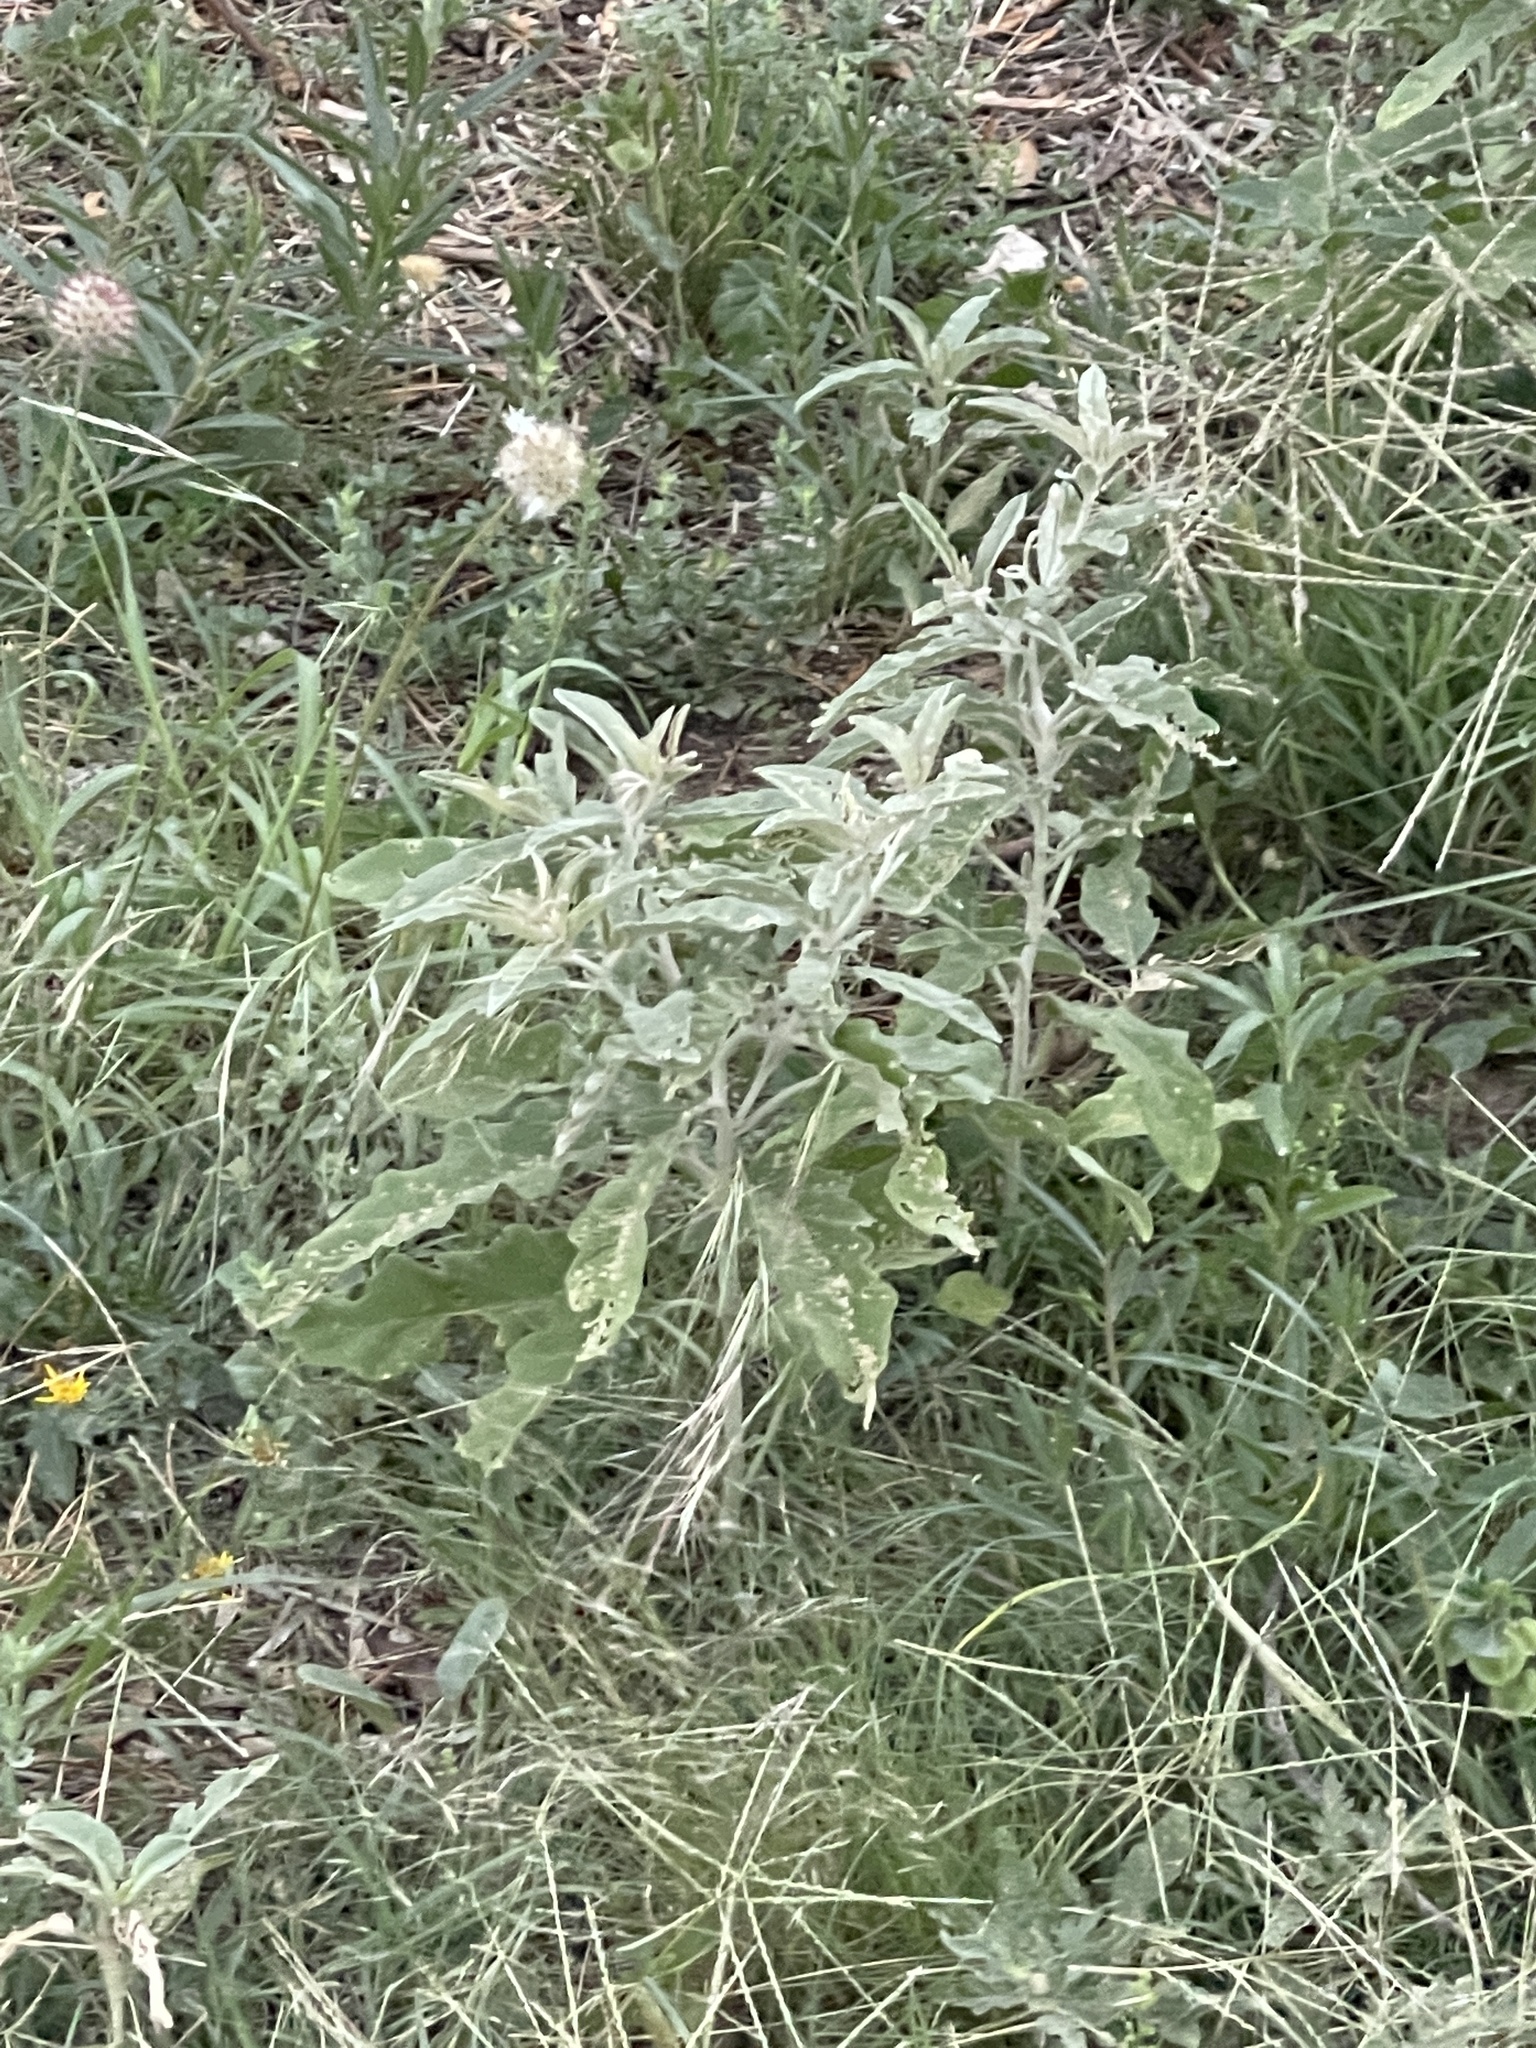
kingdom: Plantae
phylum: Tracheophyta
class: Magnoliopsida
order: Solanales
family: Solanaceae
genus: Solanum
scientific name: Solanum elaeagnifolium
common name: Silverleaf nightshade
